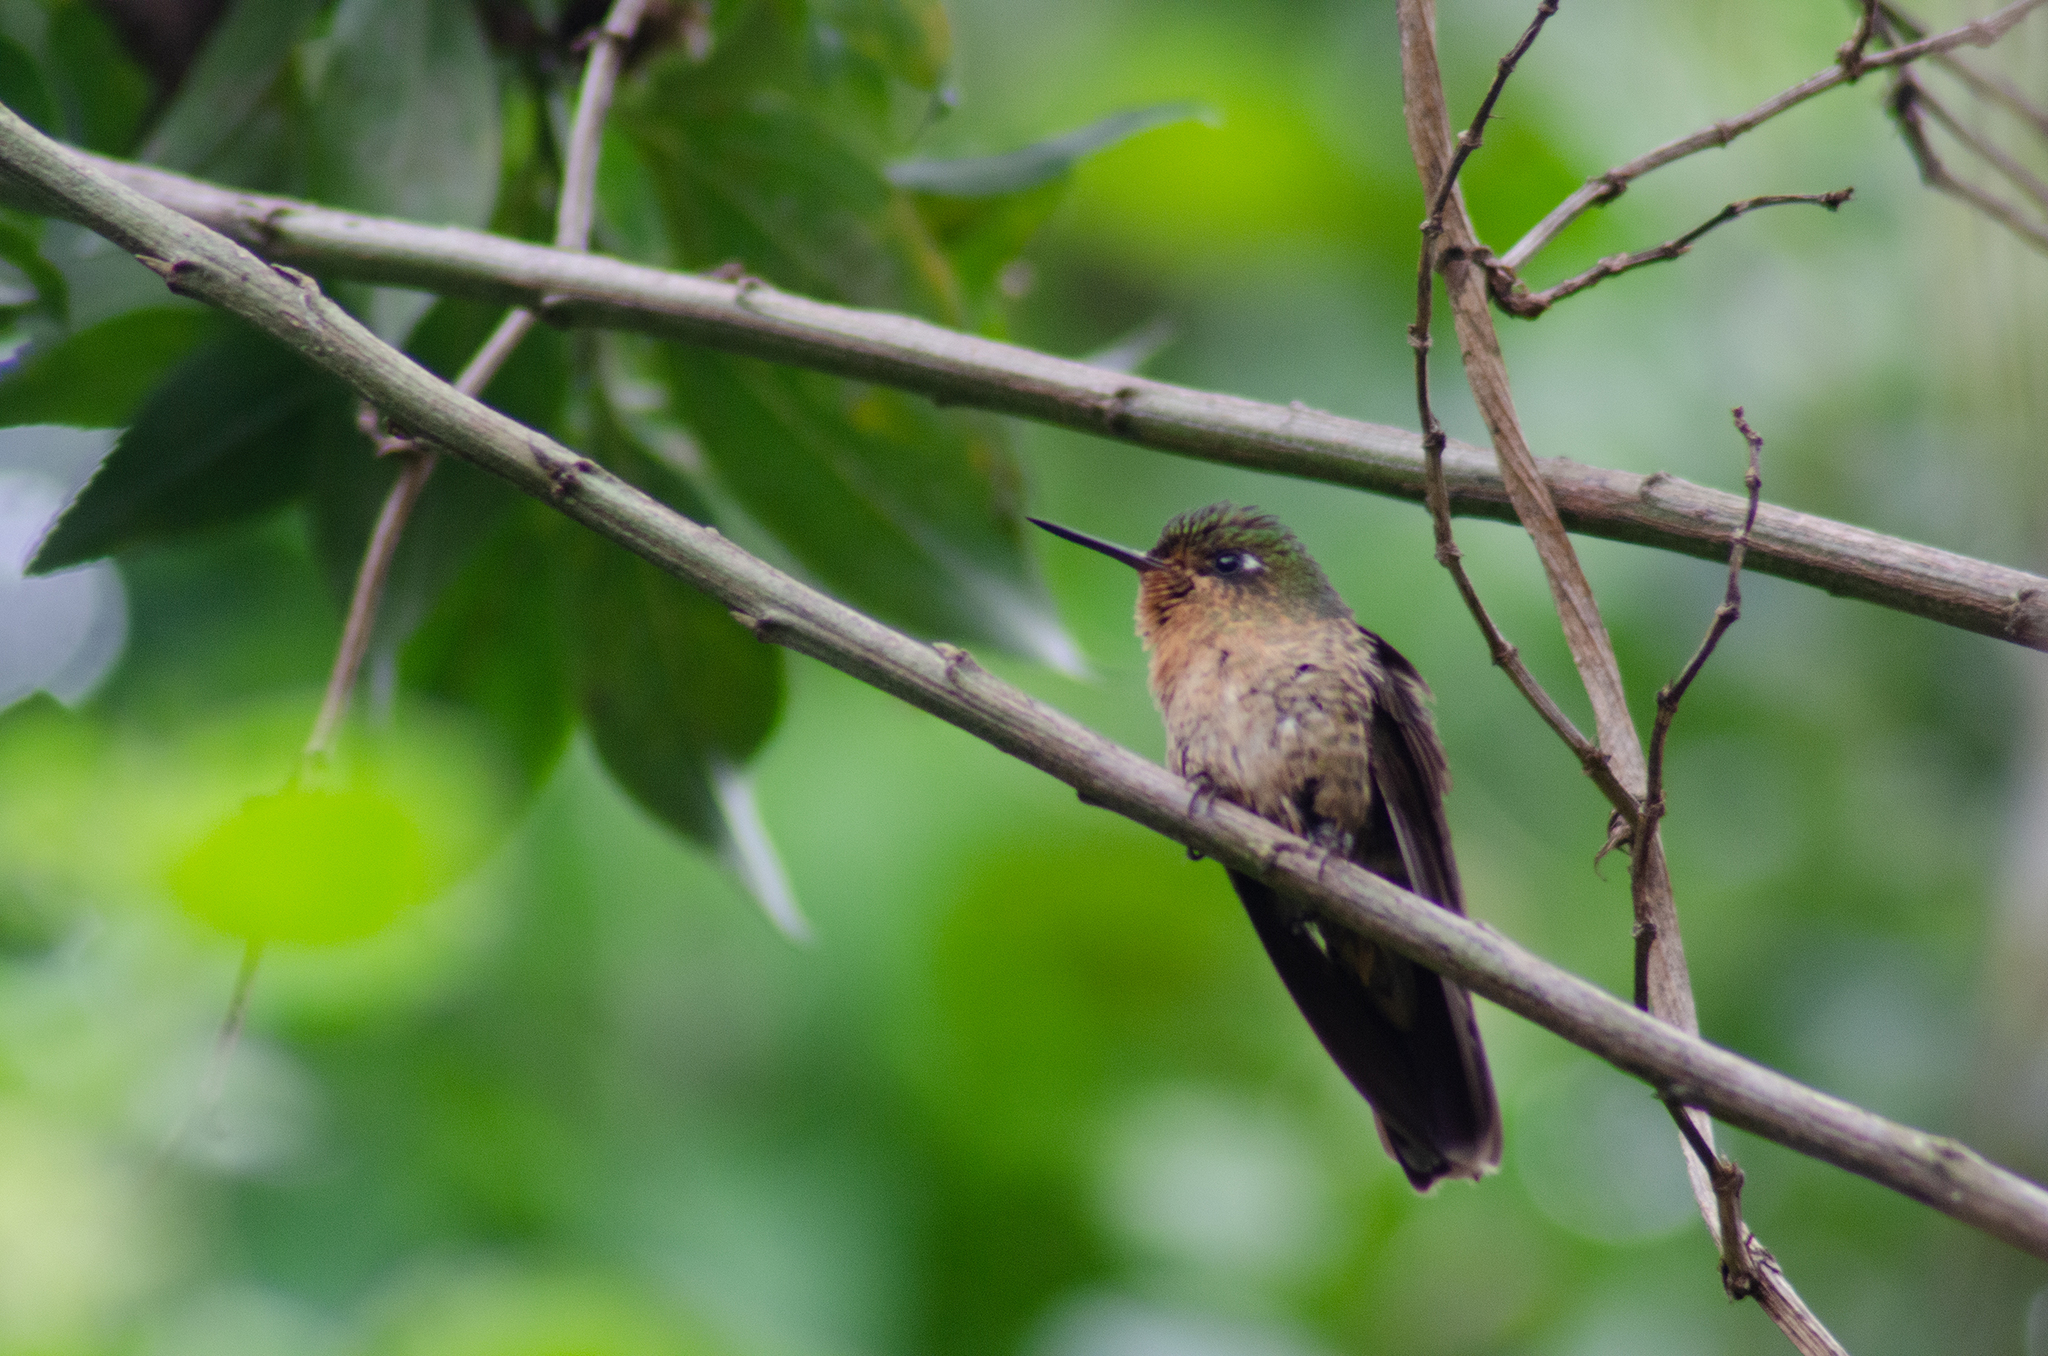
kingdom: Animalia
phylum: Chordata
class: Aves
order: Apodiformes
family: Trochilidae
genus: Metallura
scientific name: Metallura tyrianthina
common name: Tyrian metaltail
